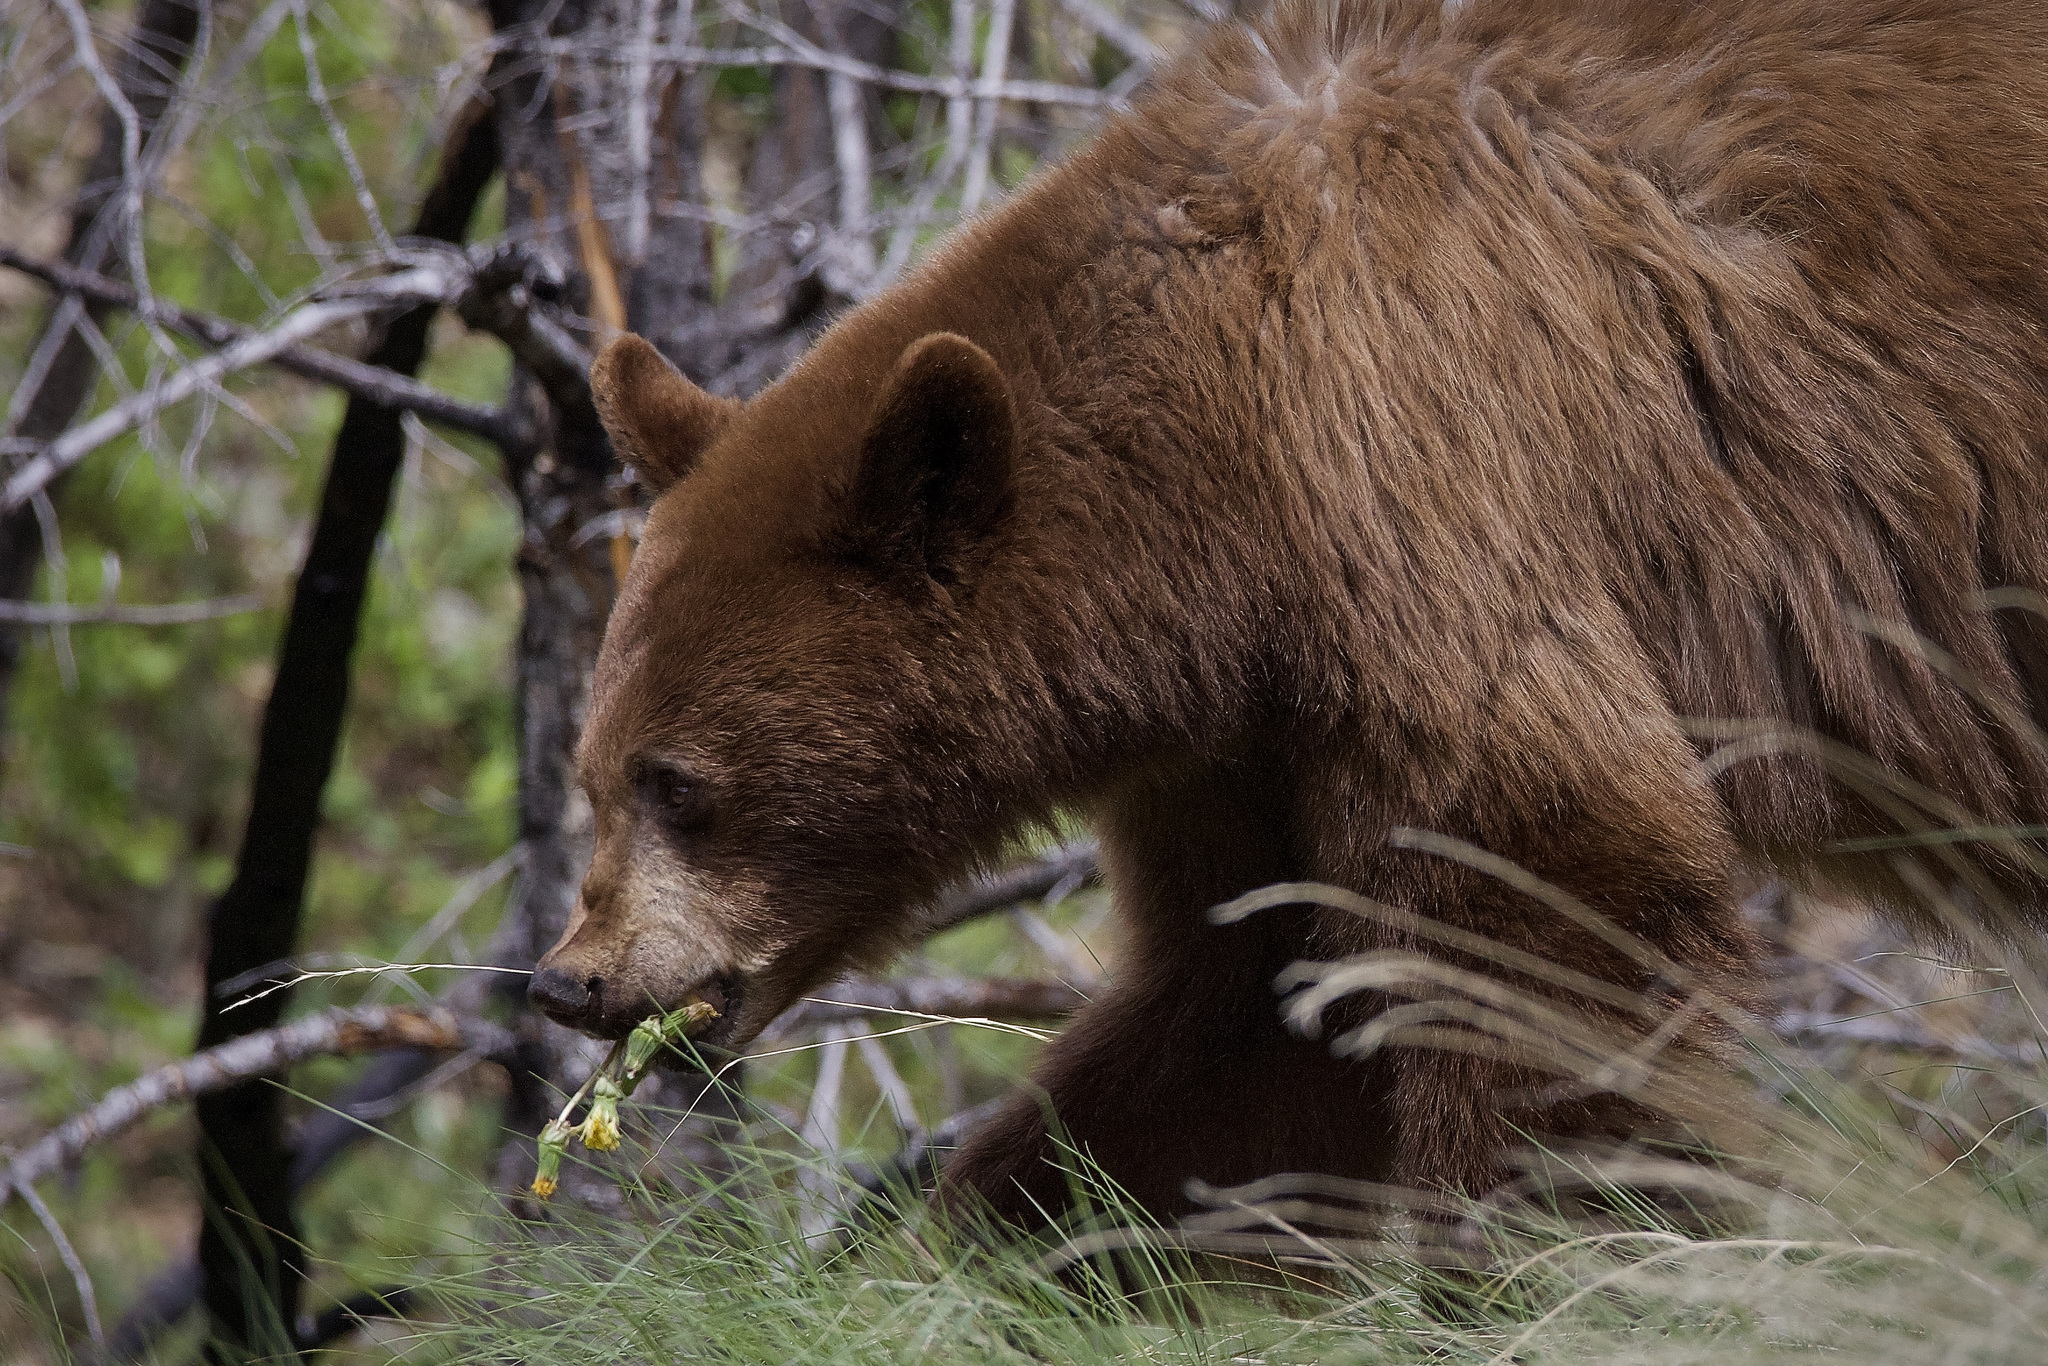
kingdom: Animalia
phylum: Chordata
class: Mammalia
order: Carnivora
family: Ursidae
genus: Ursus
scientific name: Ursus americanus
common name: American black bear
